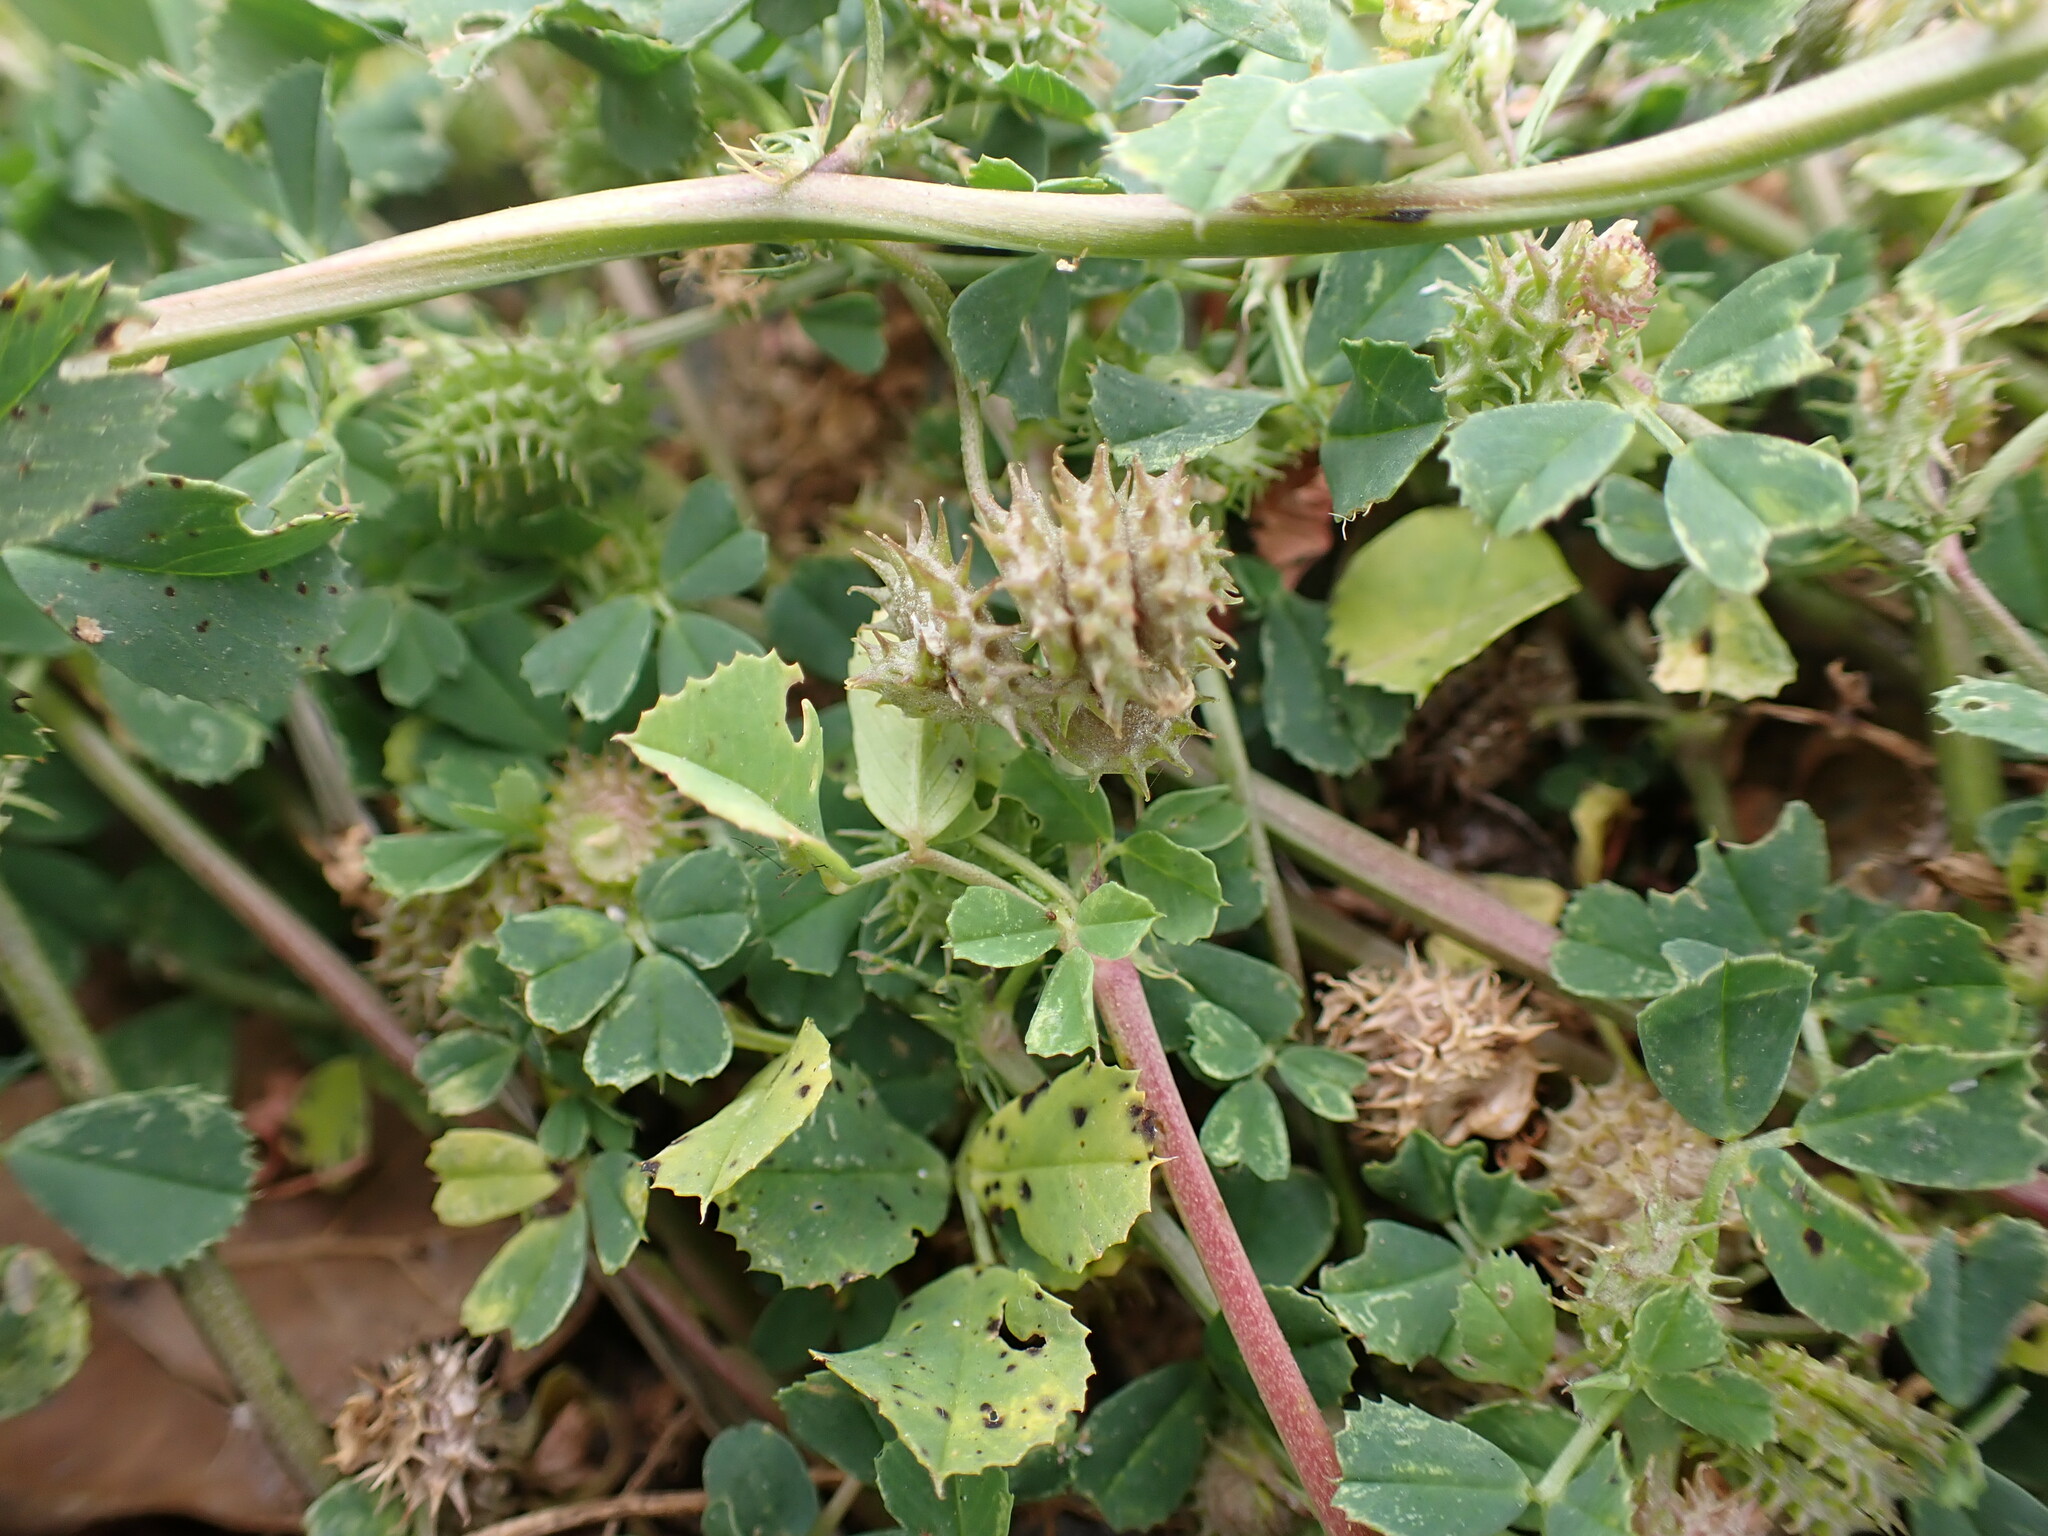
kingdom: Plantae
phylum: Tracheophyta
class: Magnoliopsida
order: Fabales
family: Fabaceae
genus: Medicago
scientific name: Medicago polymorpha
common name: Burclover
